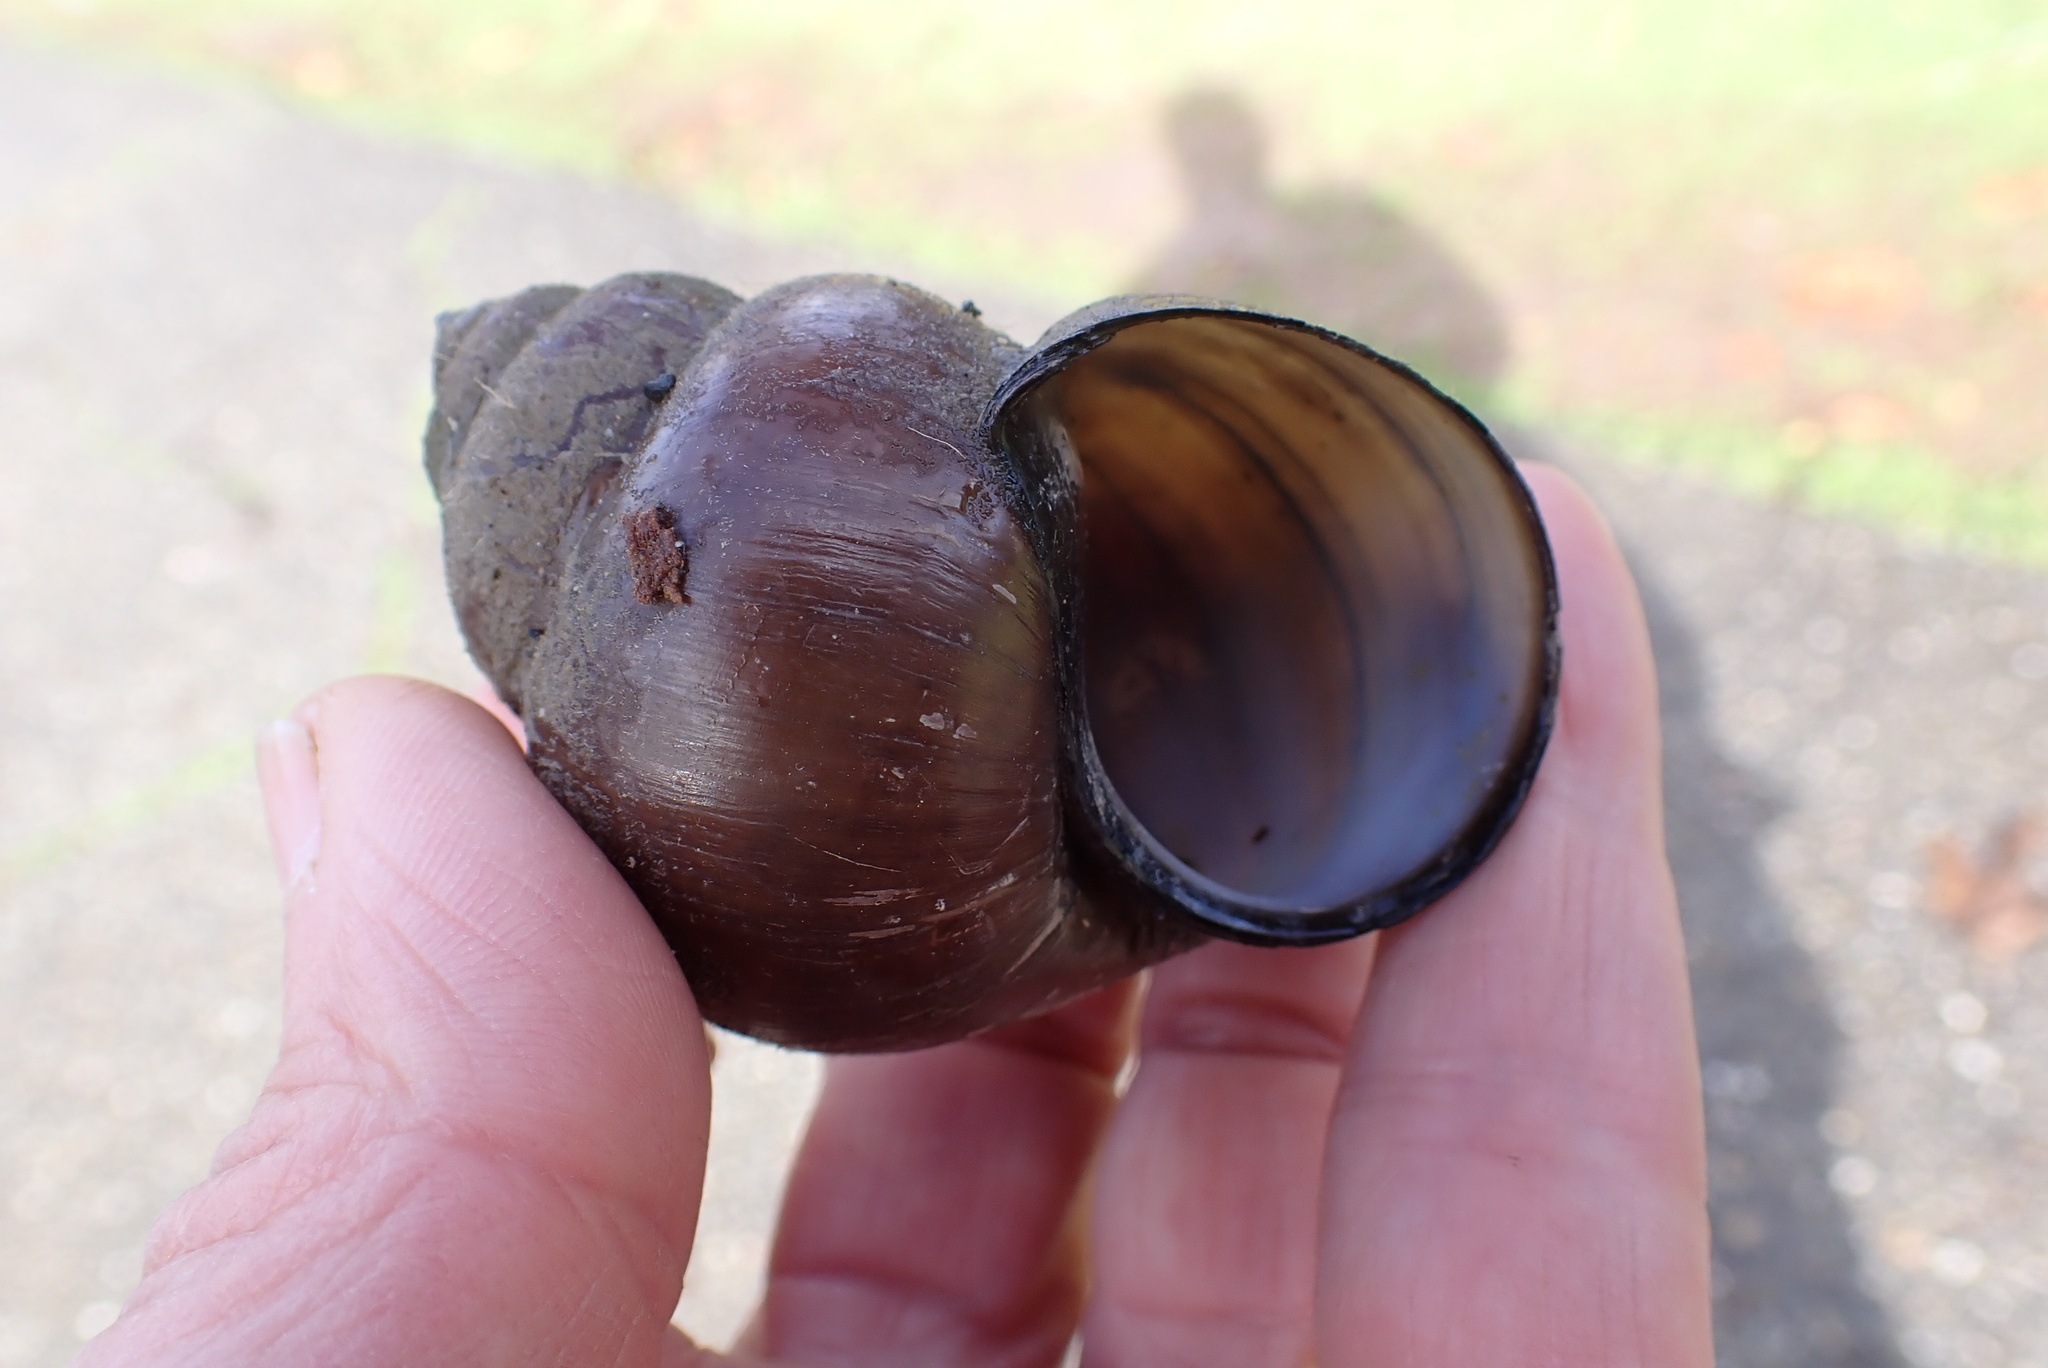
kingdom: Animalia
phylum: Mollusca
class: Gastropoda
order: Architaenioglossa
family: Viviparidae
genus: Cipangopaludina
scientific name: Cipangopaludina chinensis
